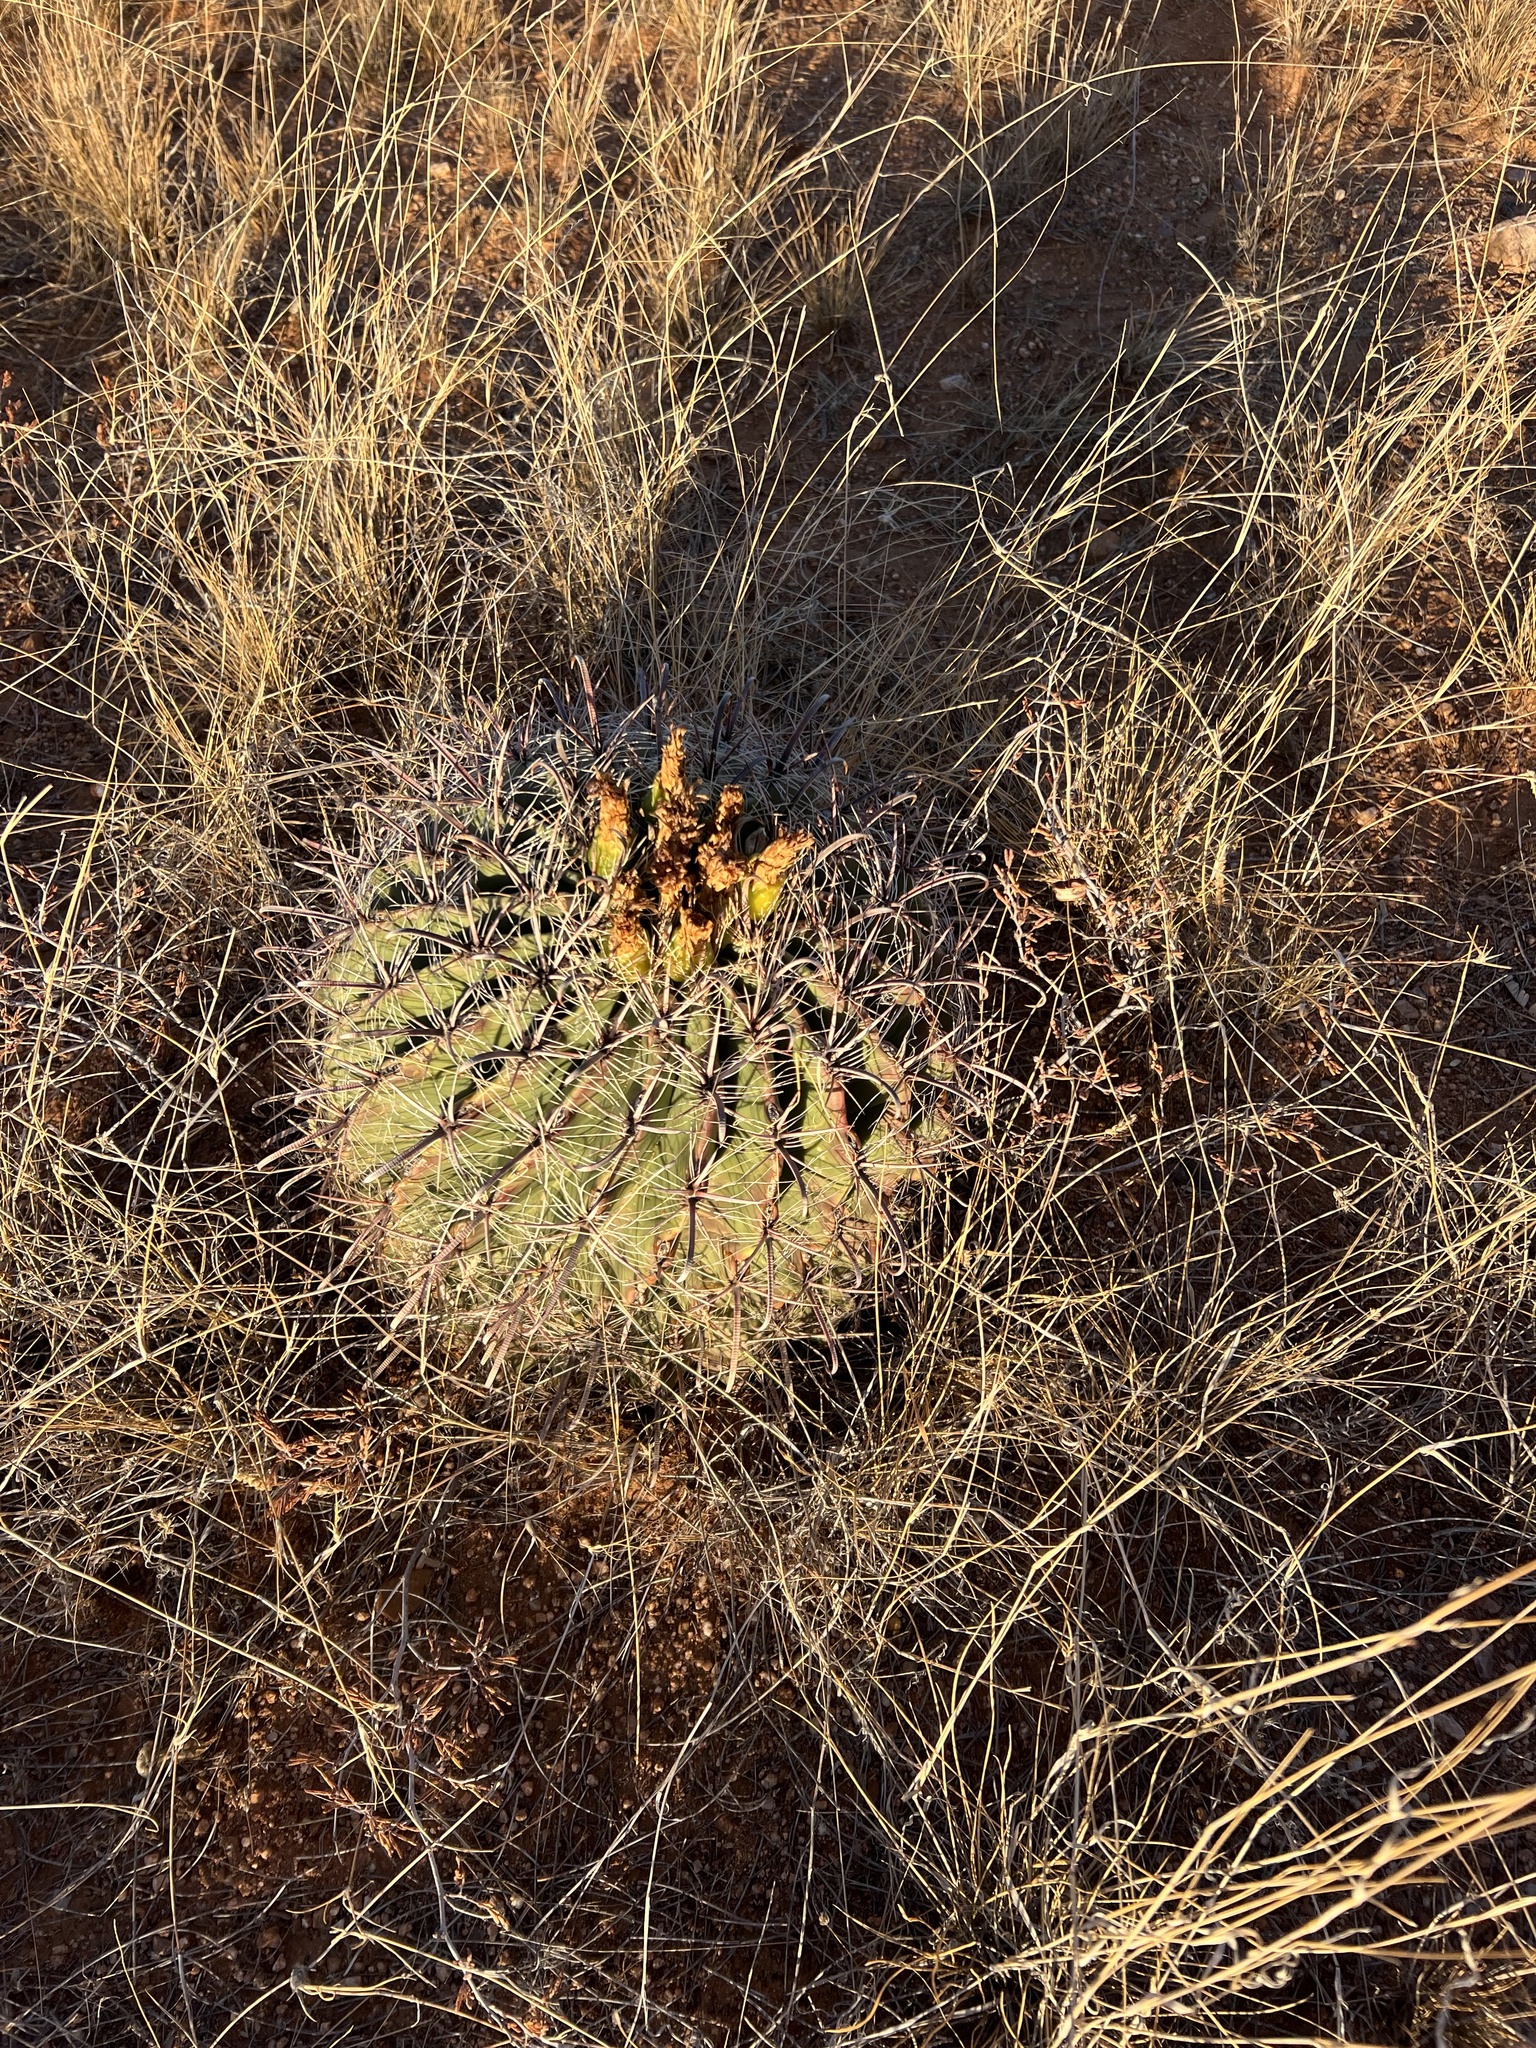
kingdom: Plantae
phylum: Tracheophyta
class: Magnoliopsida
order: Caryophyllales
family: Cactaceae
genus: Ferocactus
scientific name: Ferocactus wislizeni
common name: Candy barrel cactus
